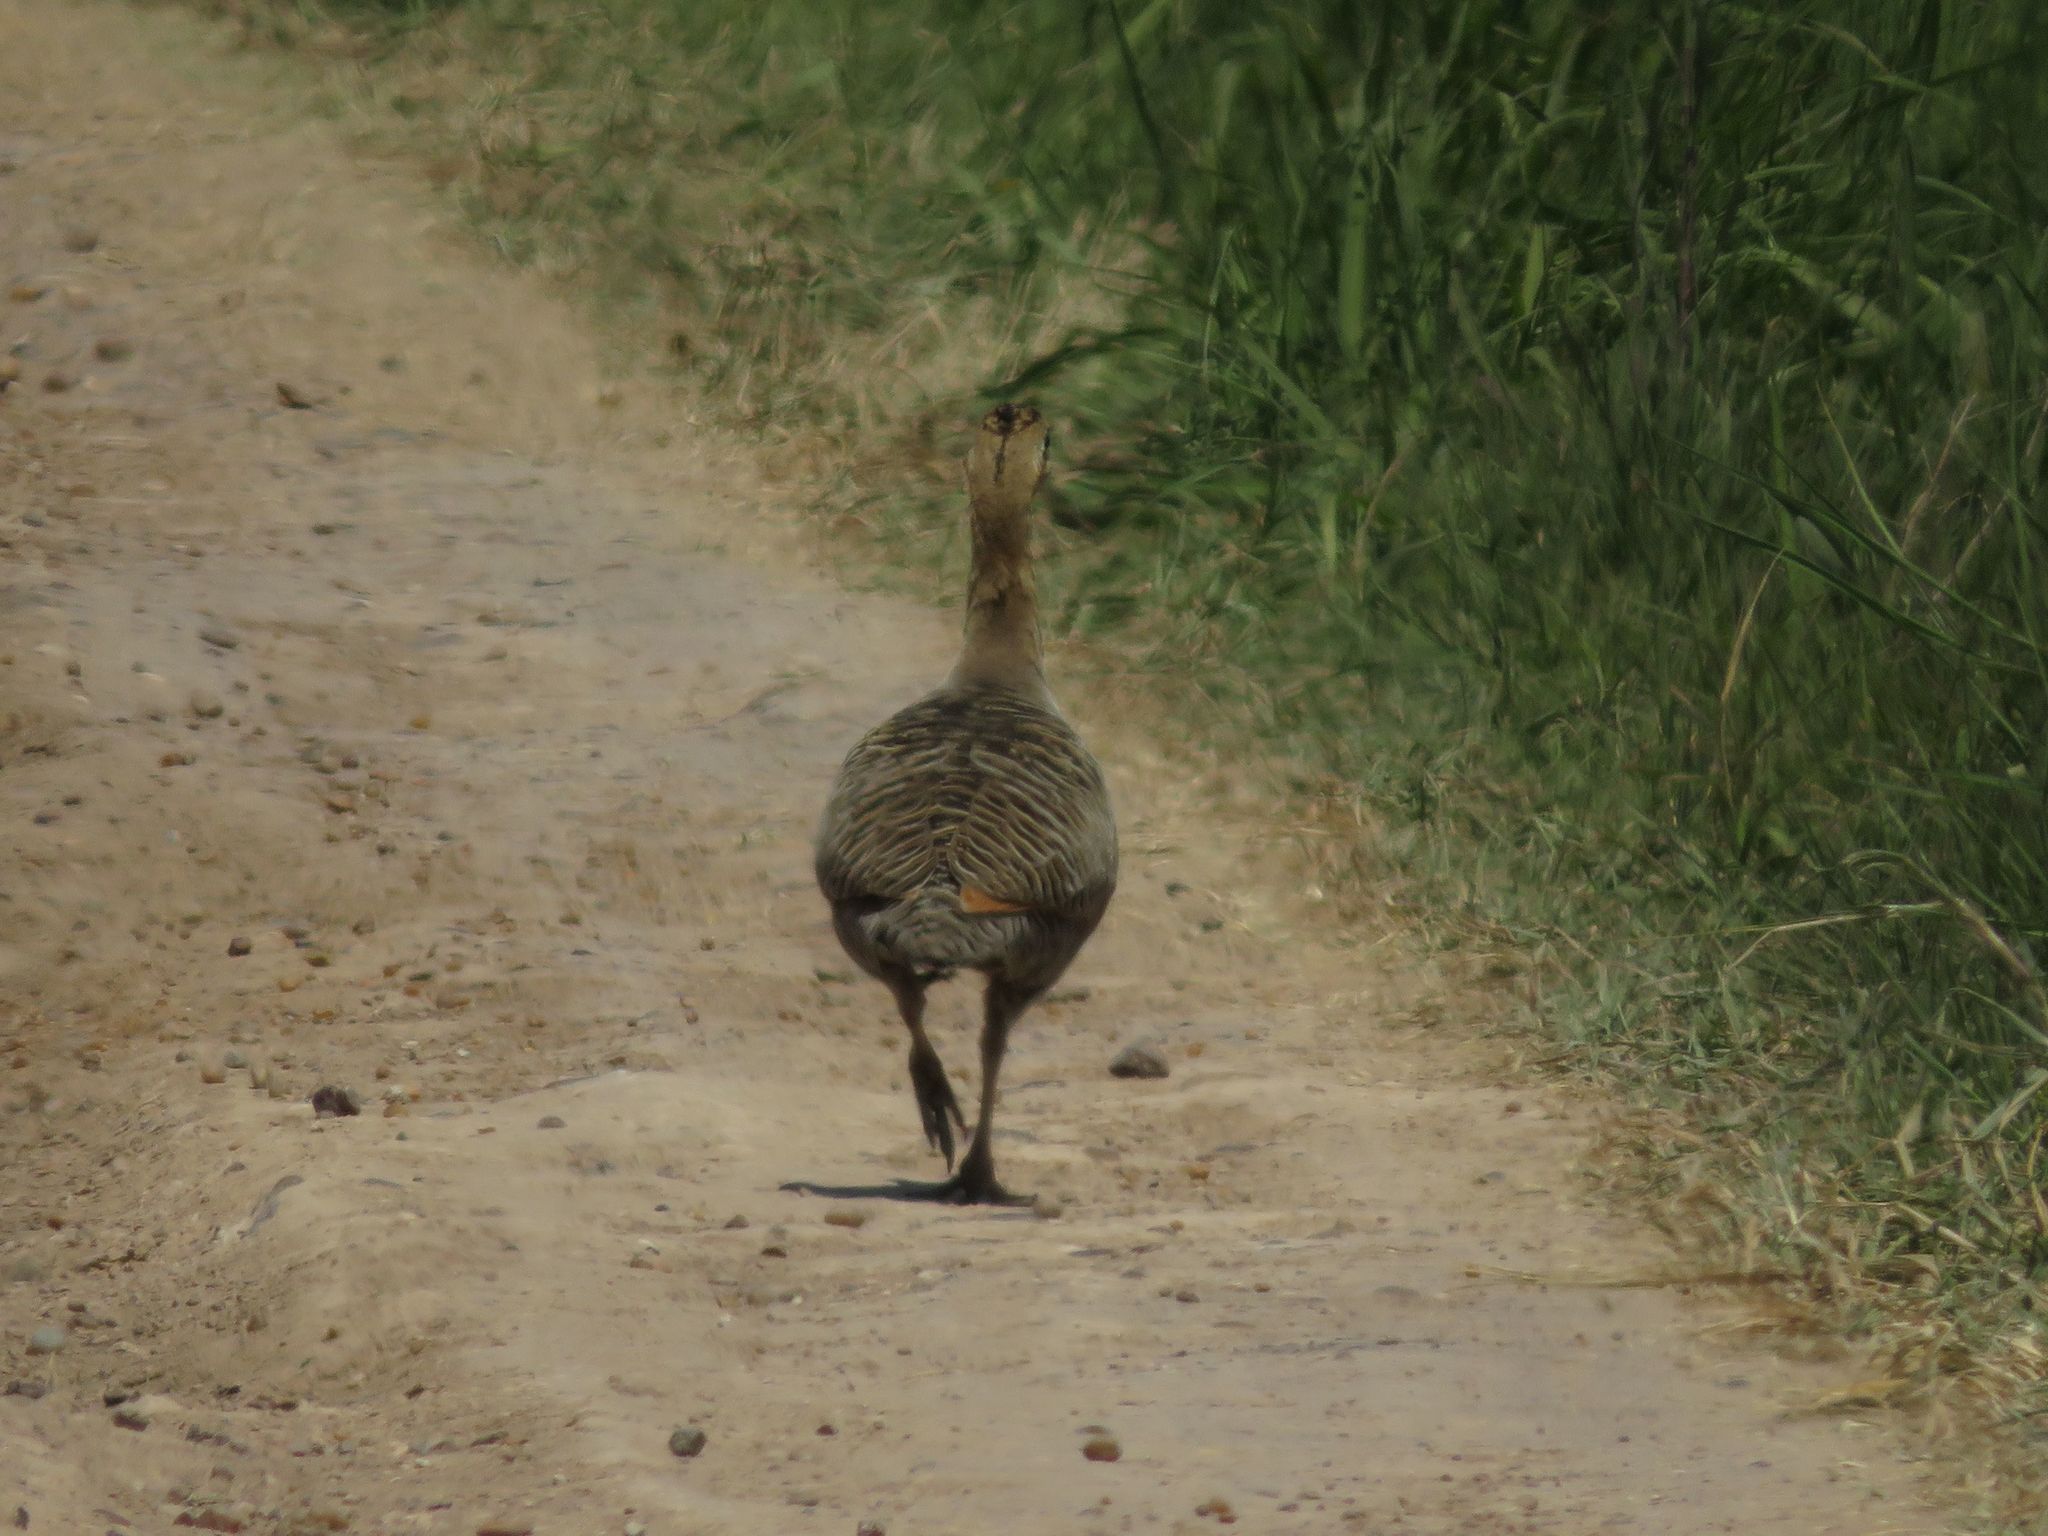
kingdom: Animalia
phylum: Chordata
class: Aves
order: Tinamiformes
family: Tinamidae
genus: Rhynchotus
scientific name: Rhynchotus rufescens
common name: Red-winged tinamou
